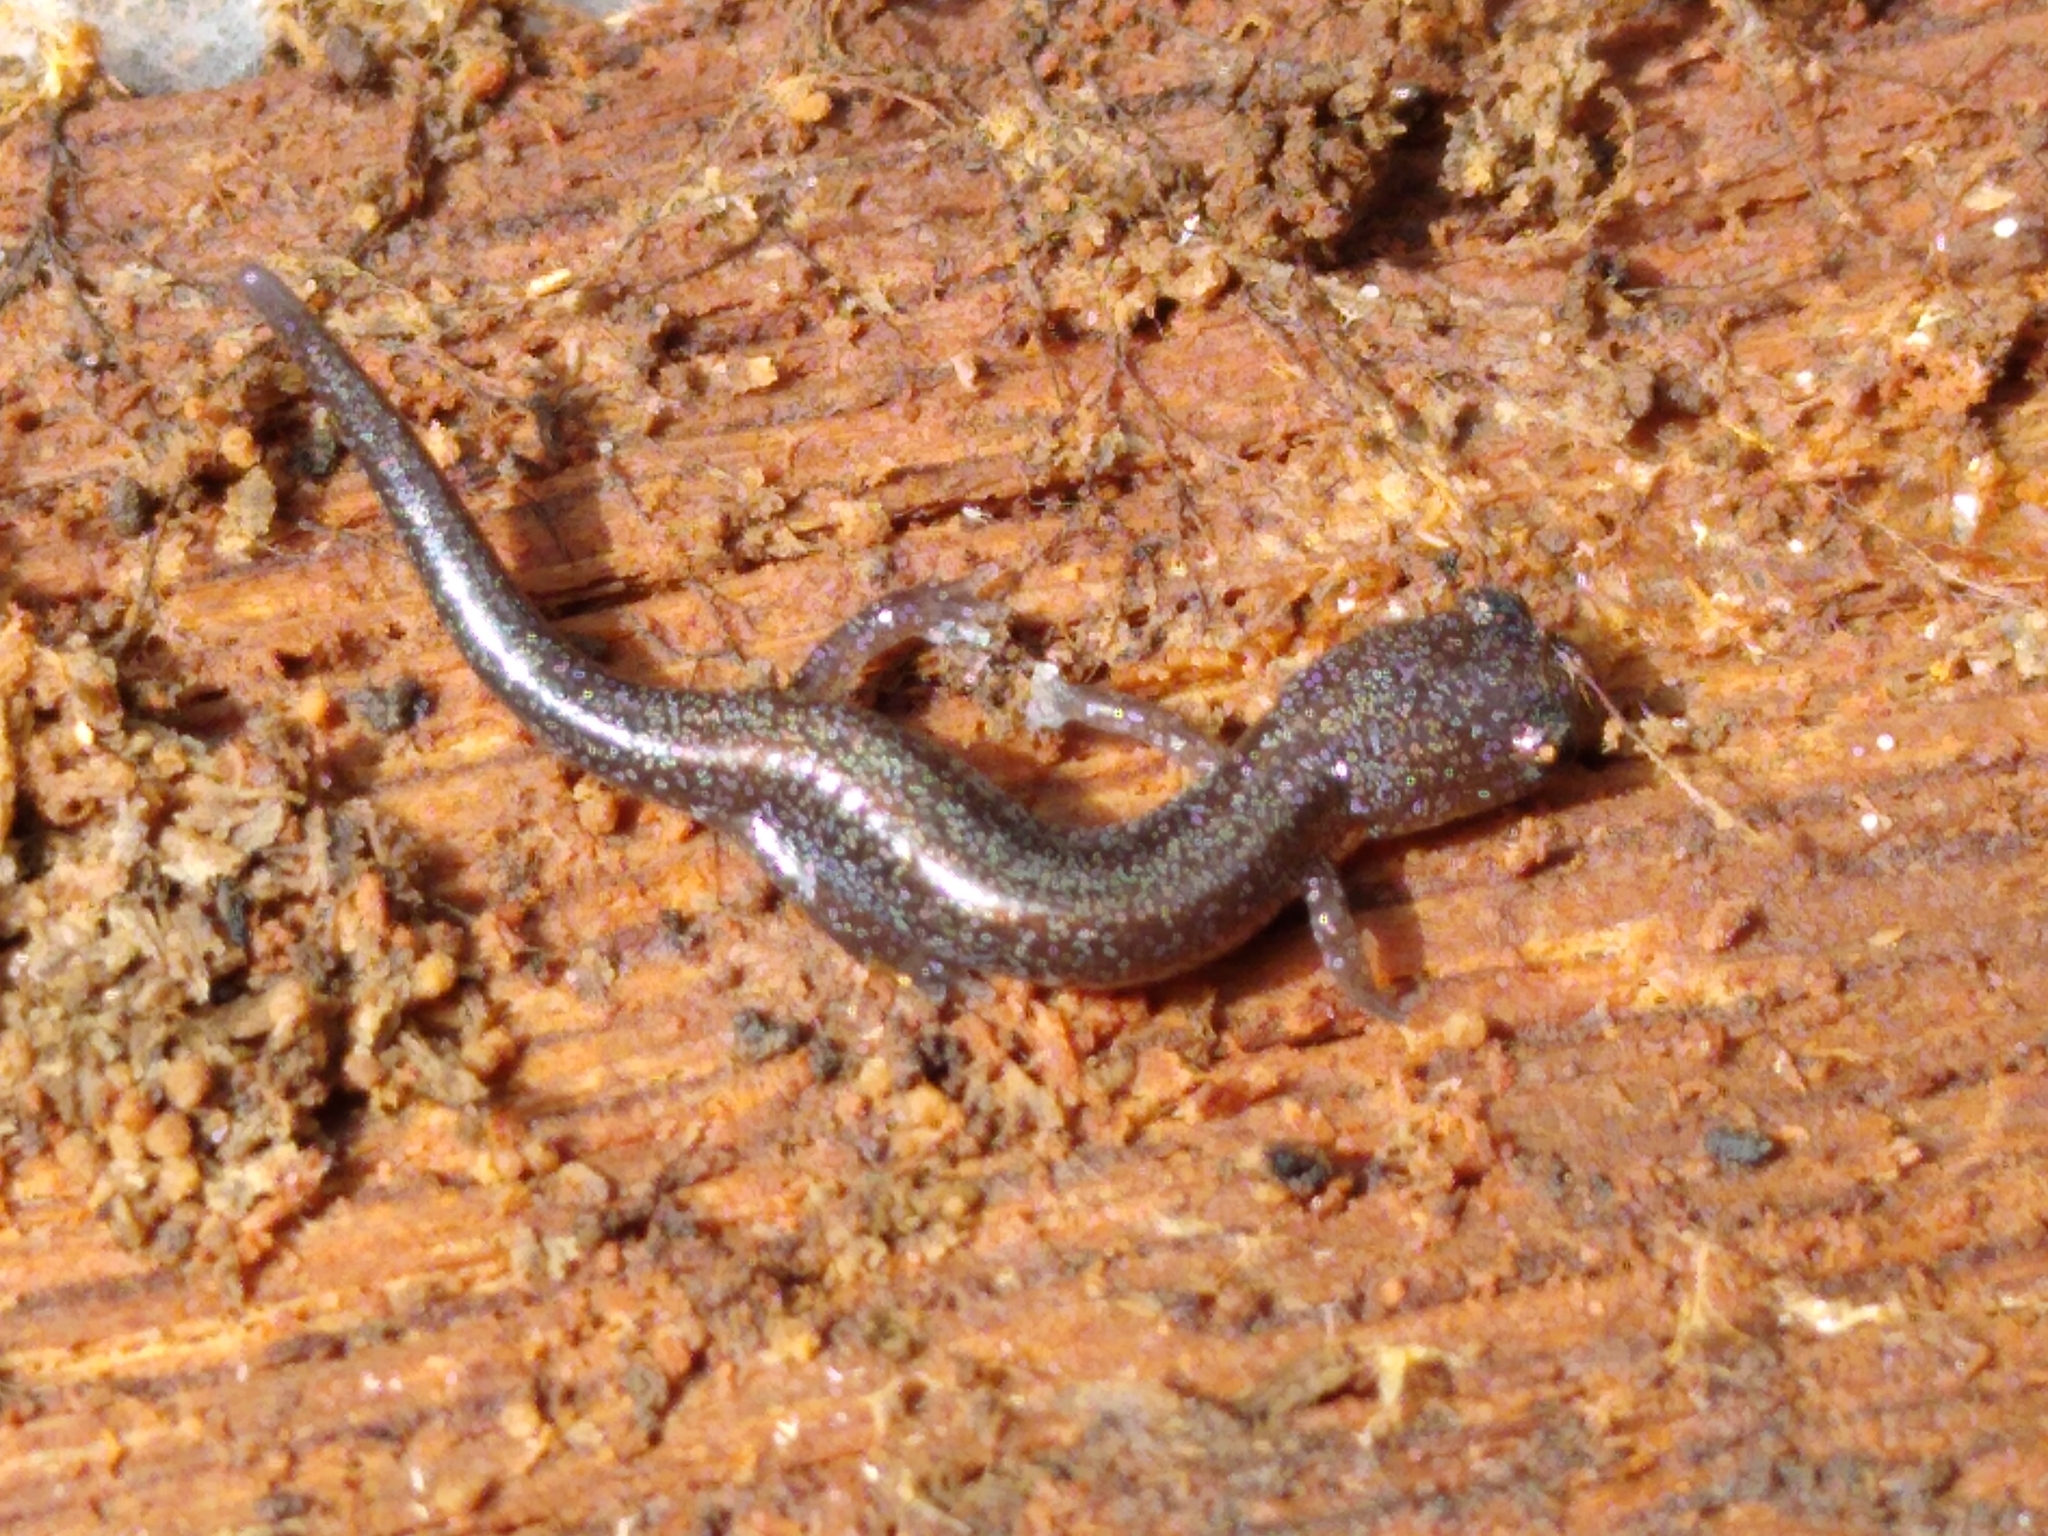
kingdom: Animalia
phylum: Chordata
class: Amphibia
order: Caudata
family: Plethodontidae
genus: Plethodon
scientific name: Plethodon cinereus
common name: Redback salamander
